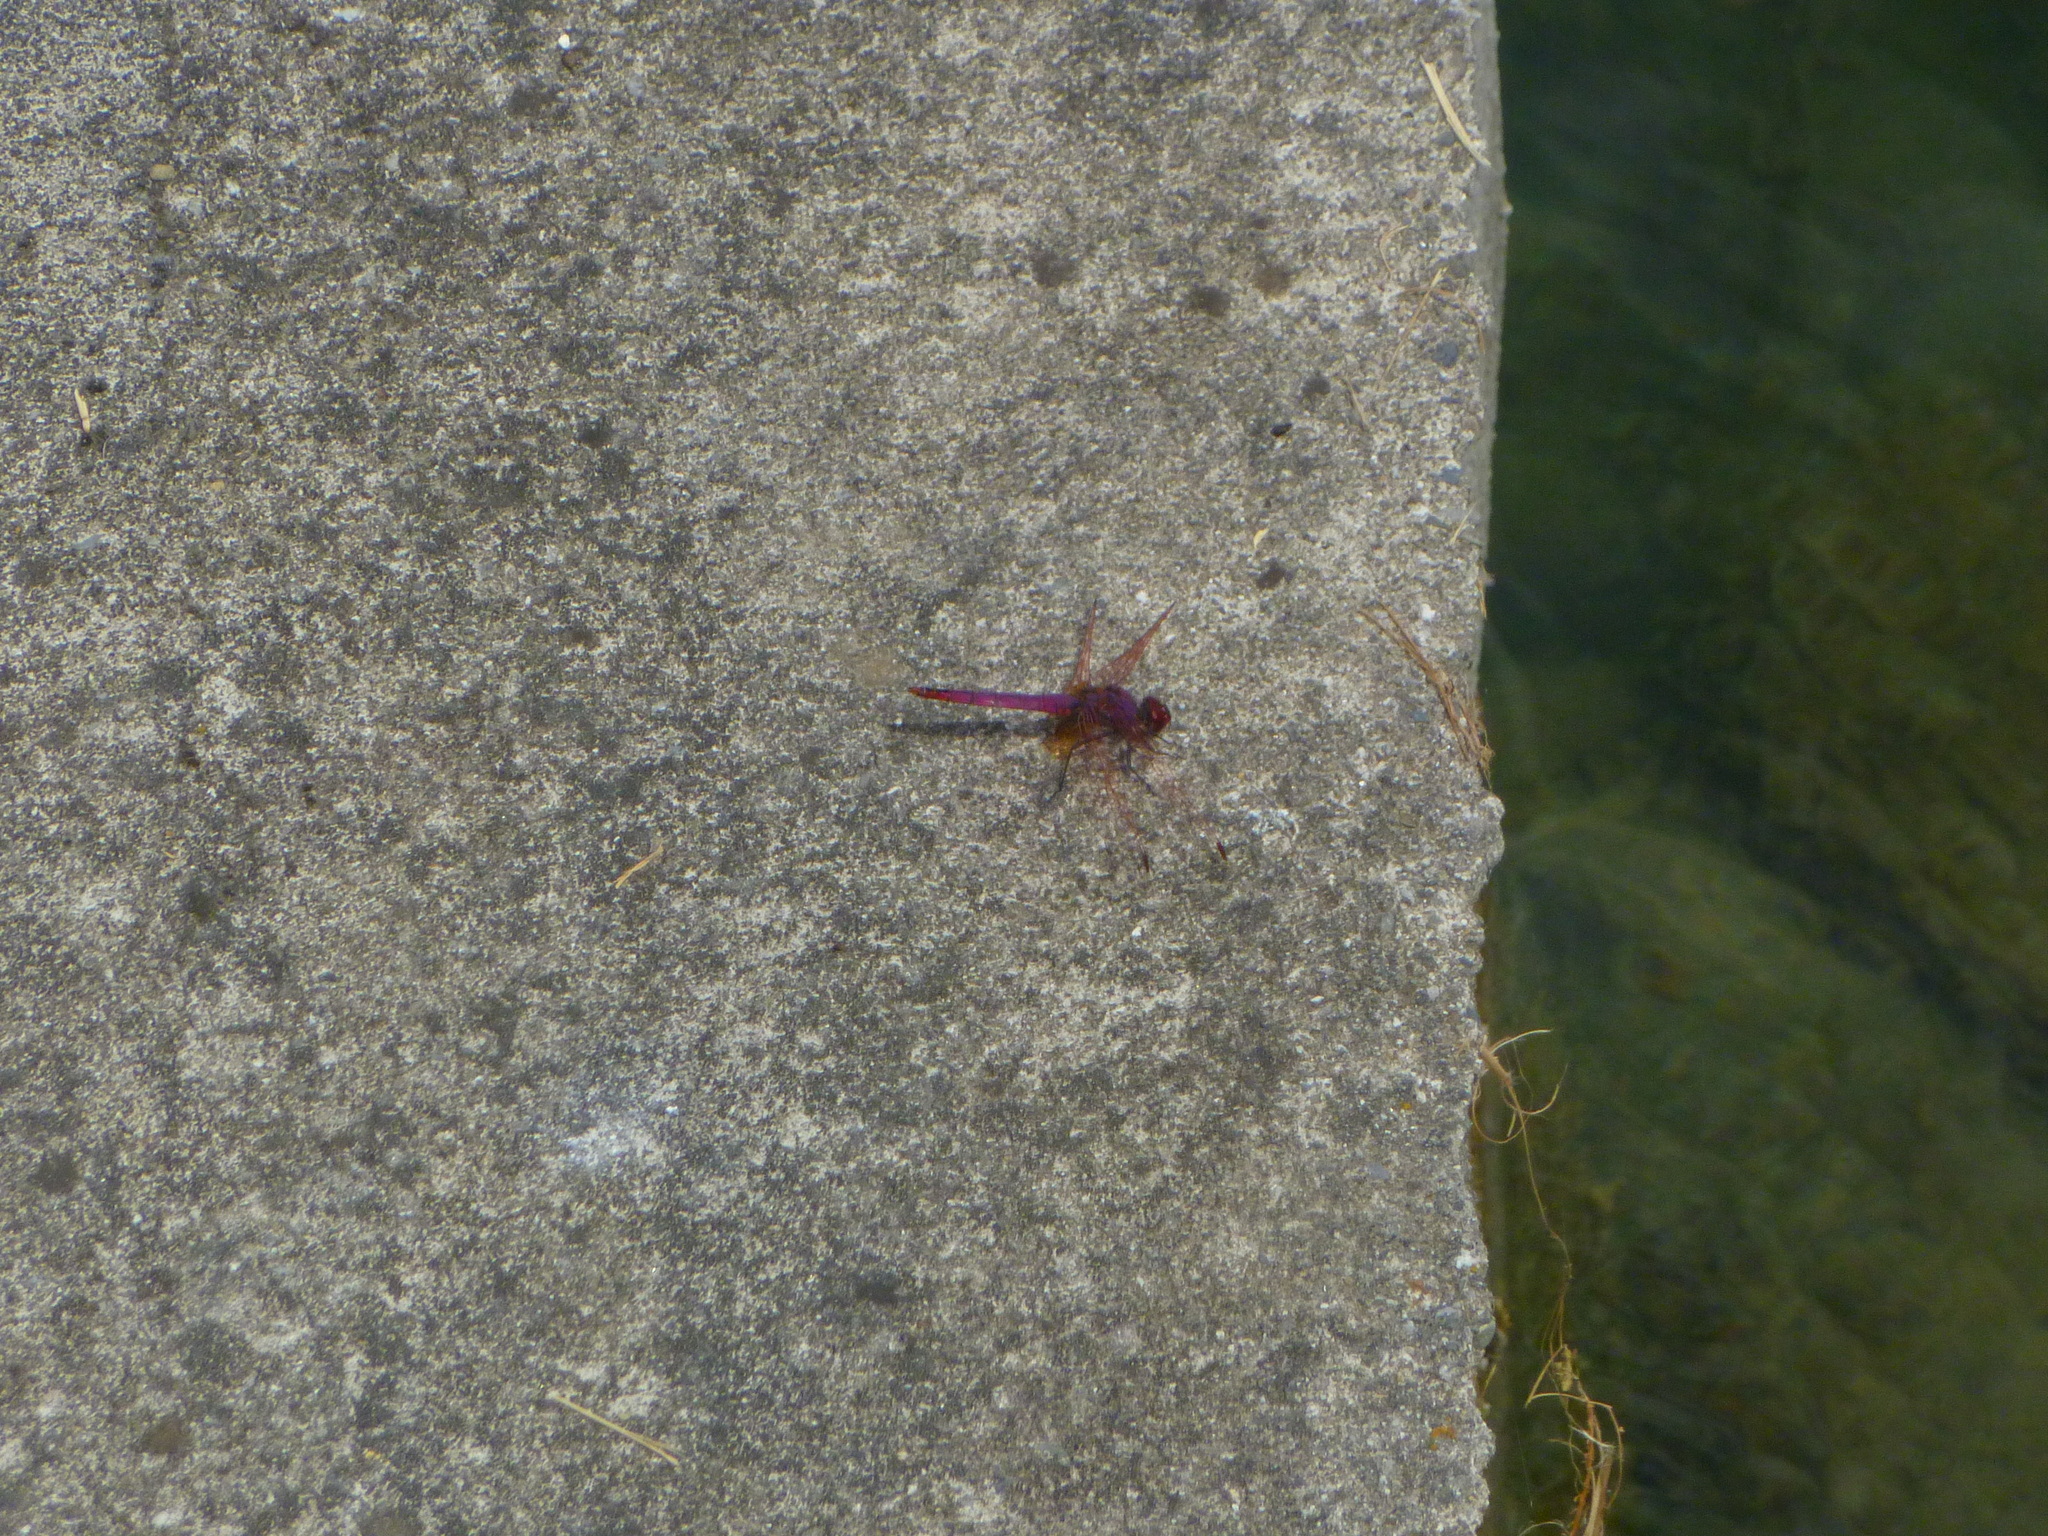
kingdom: Animalia
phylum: Arthropoda
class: Insecta
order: Odonata
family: Libellulidae
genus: Trithemis
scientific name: Trithemis annulata
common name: Violet dropwing
